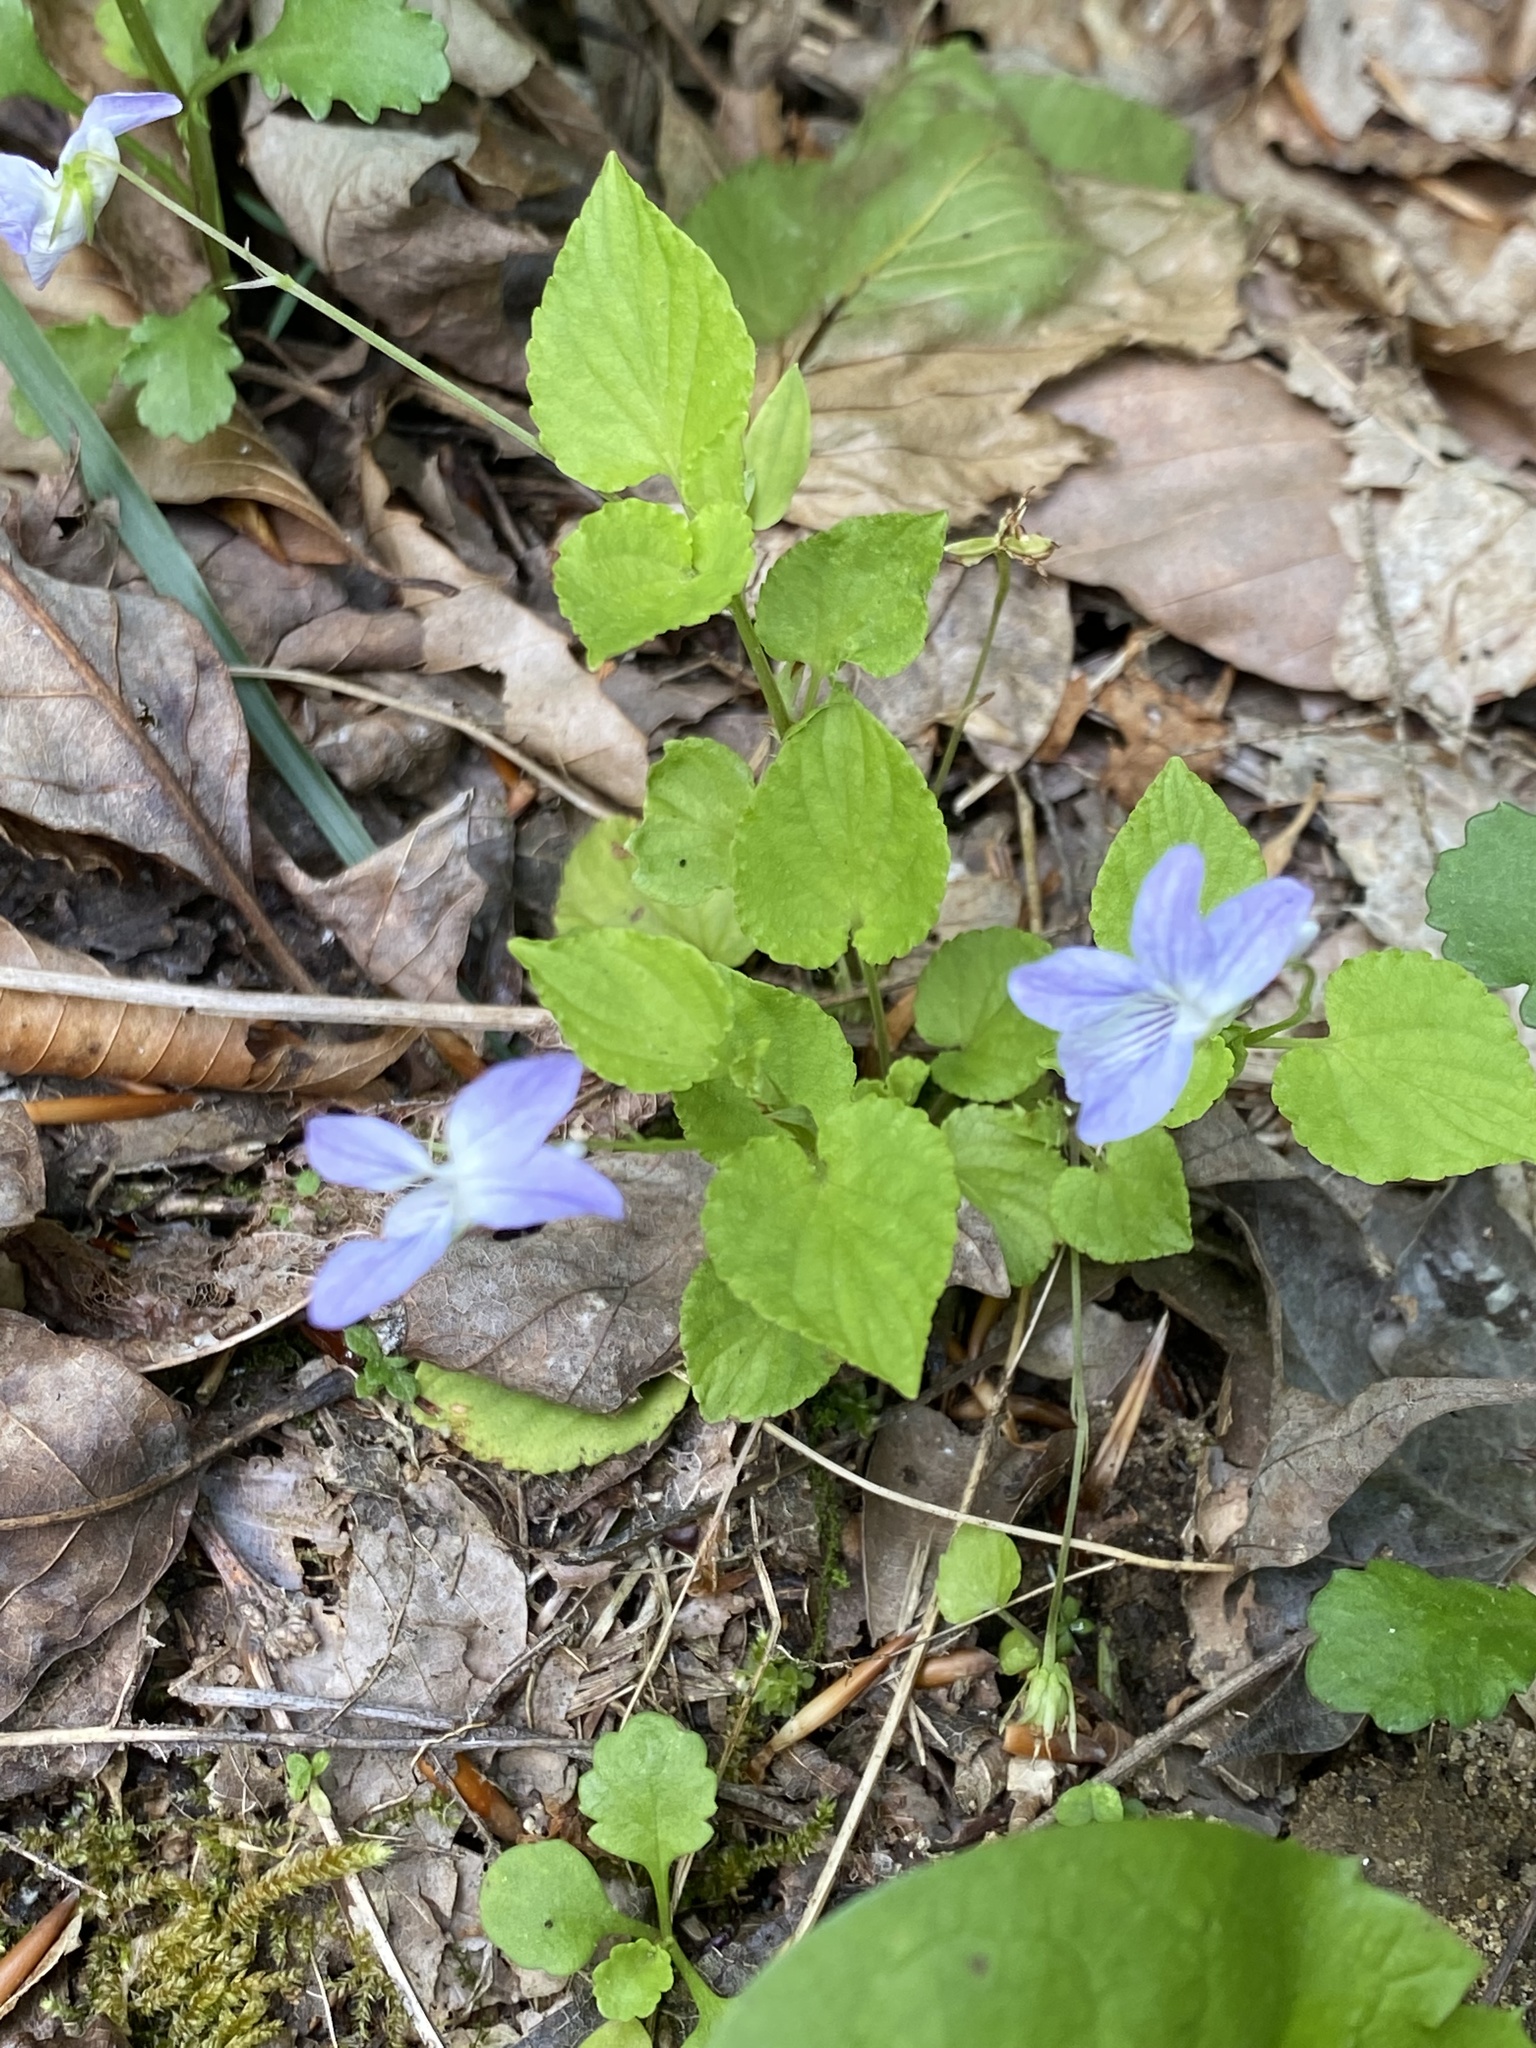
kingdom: Plantae
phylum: Tracheophyta
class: Magnoliopsida
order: Malpighiales
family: Violaceae
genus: Viola
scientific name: Viola labradorica
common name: Labrador violet
